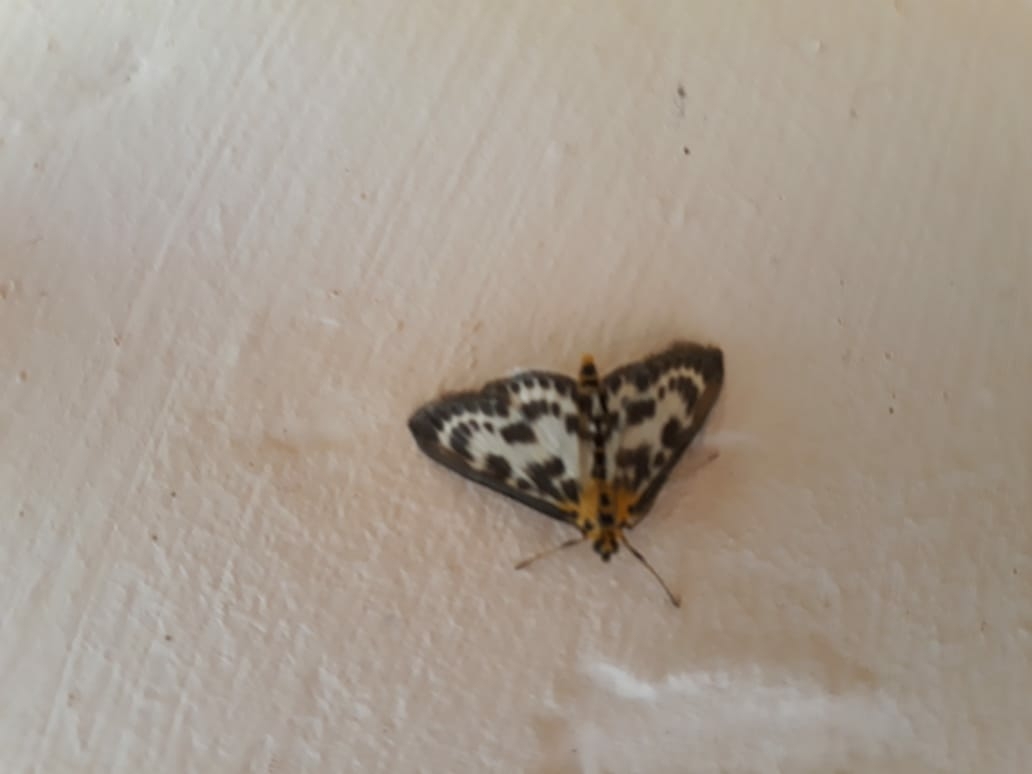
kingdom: Animalia
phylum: Arthropoda
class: Insecta
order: Lepidoptera
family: Crambidae
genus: Anania
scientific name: Anania hortulata
